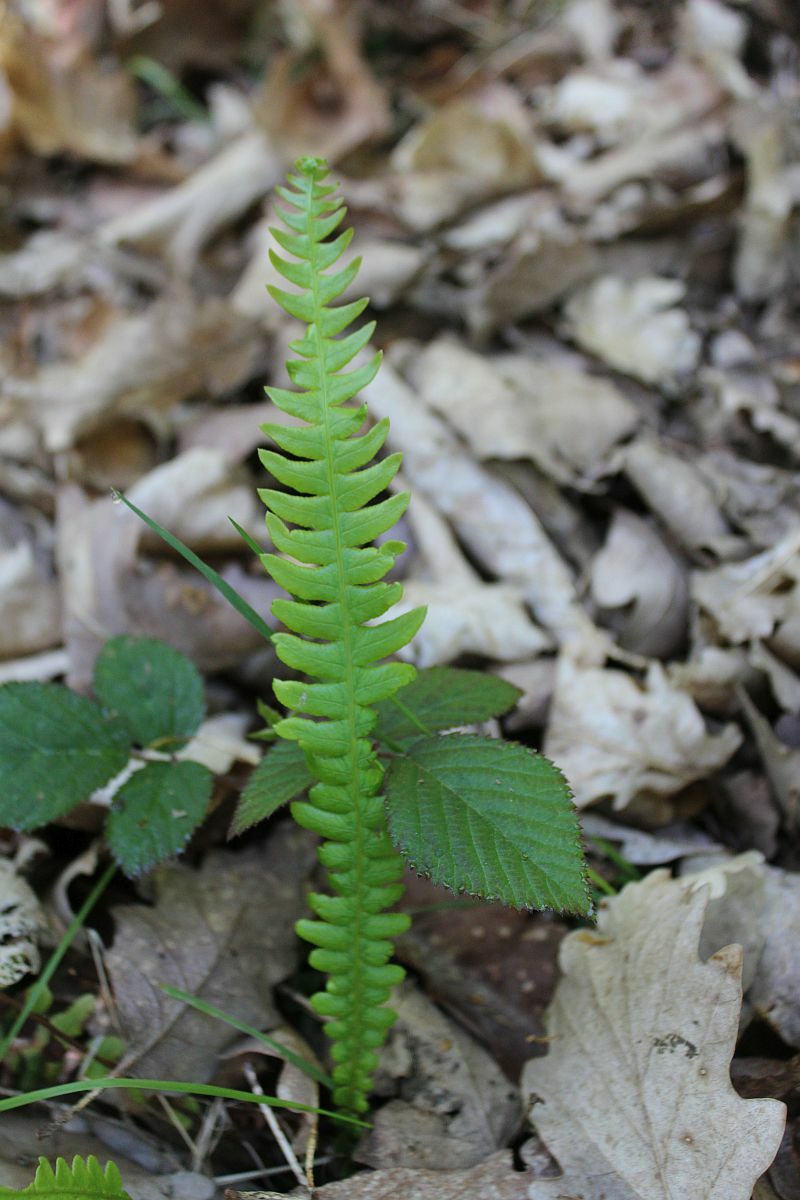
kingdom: Plantae
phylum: Tracheophyta
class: Polypodiopsida
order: Polypodiales
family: Blechnaceae
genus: Struthiopteris
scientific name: Struthiopteris spicant
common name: Deer fern
